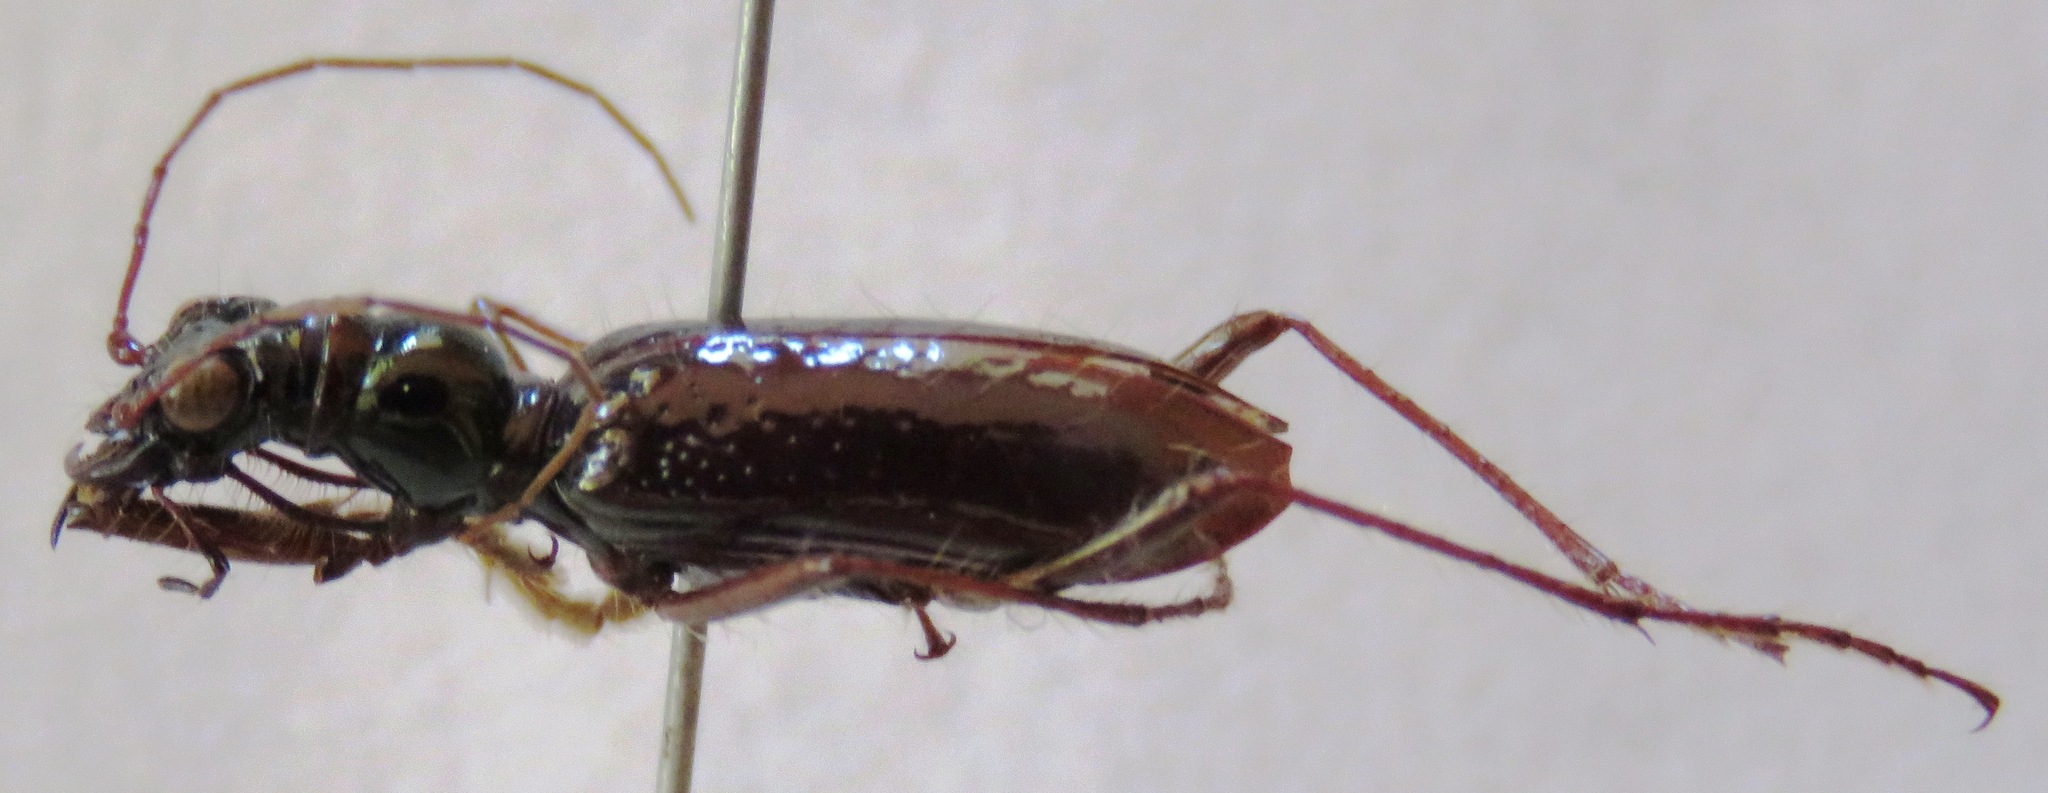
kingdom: Animalia
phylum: Arthropoda
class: Insecta
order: Coleoptera
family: Carabidae
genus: Ctenostoma
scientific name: Ctenostoma simile
